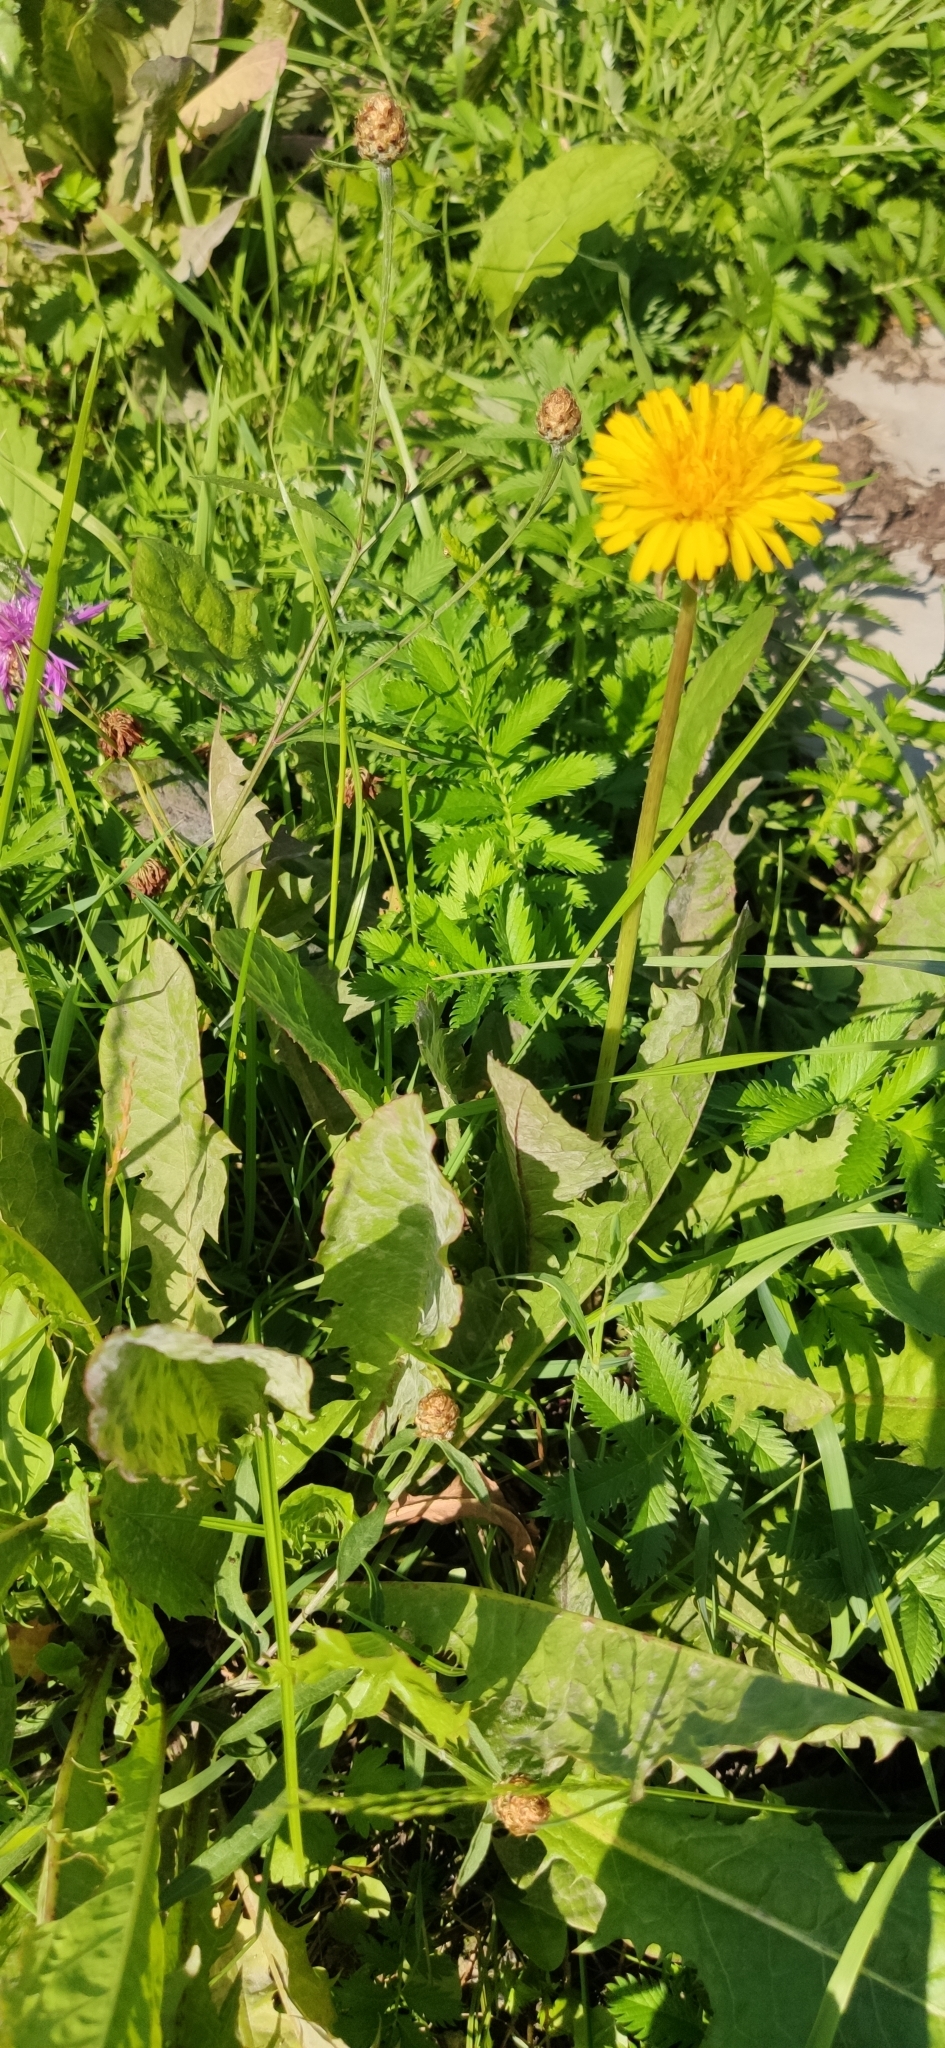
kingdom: Plantae
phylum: Tracheophyta
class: Magnoliopsida
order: Asterales
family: Asteraceae
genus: Taraxacum
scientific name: Taraxacum officinale
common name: Common dandelion
